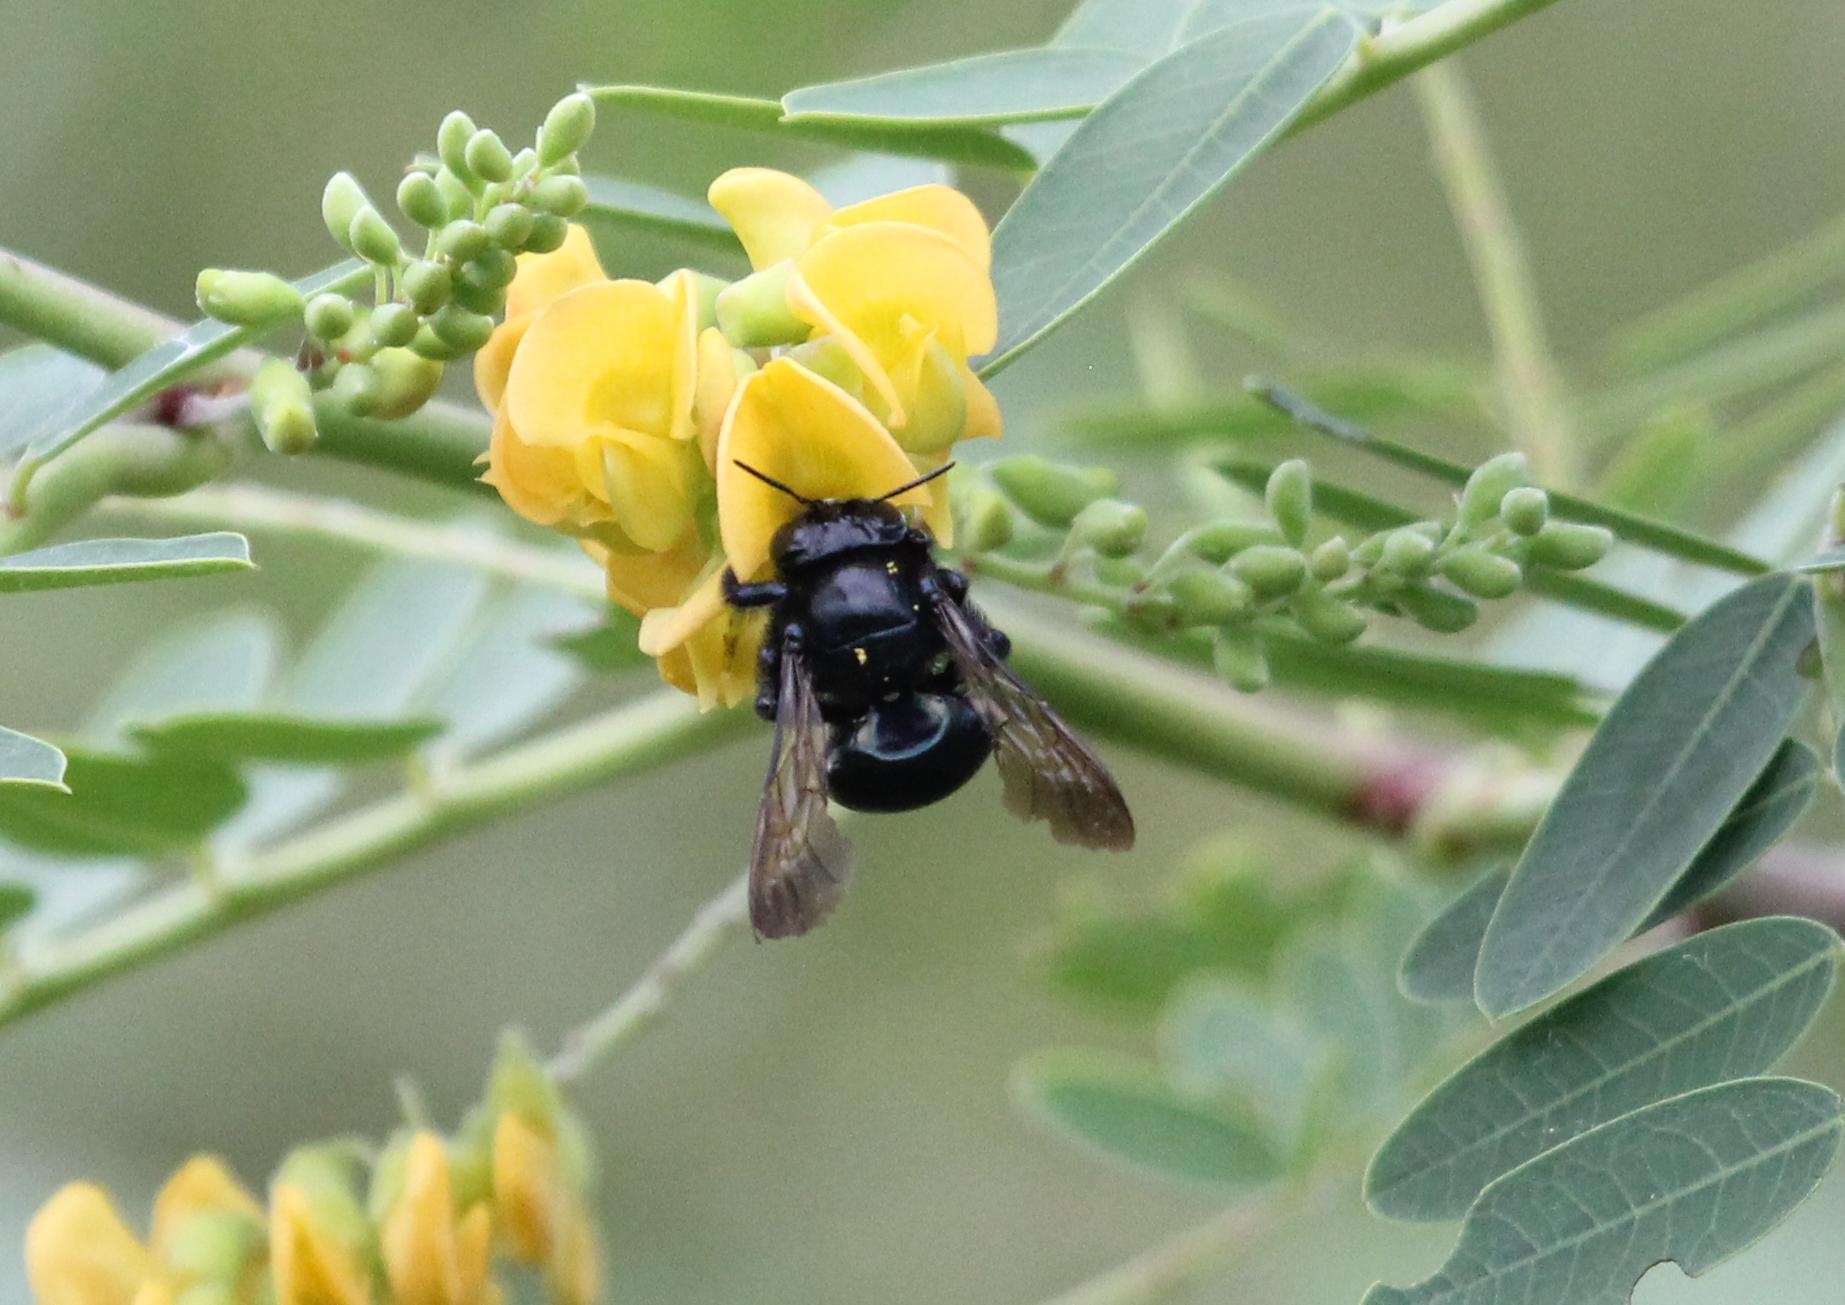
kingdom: Animalia
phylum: Arthropoda
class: Insecta
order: Hymenoptera
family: Apidae
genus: Xylocopa
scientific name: Xylocopa micans
